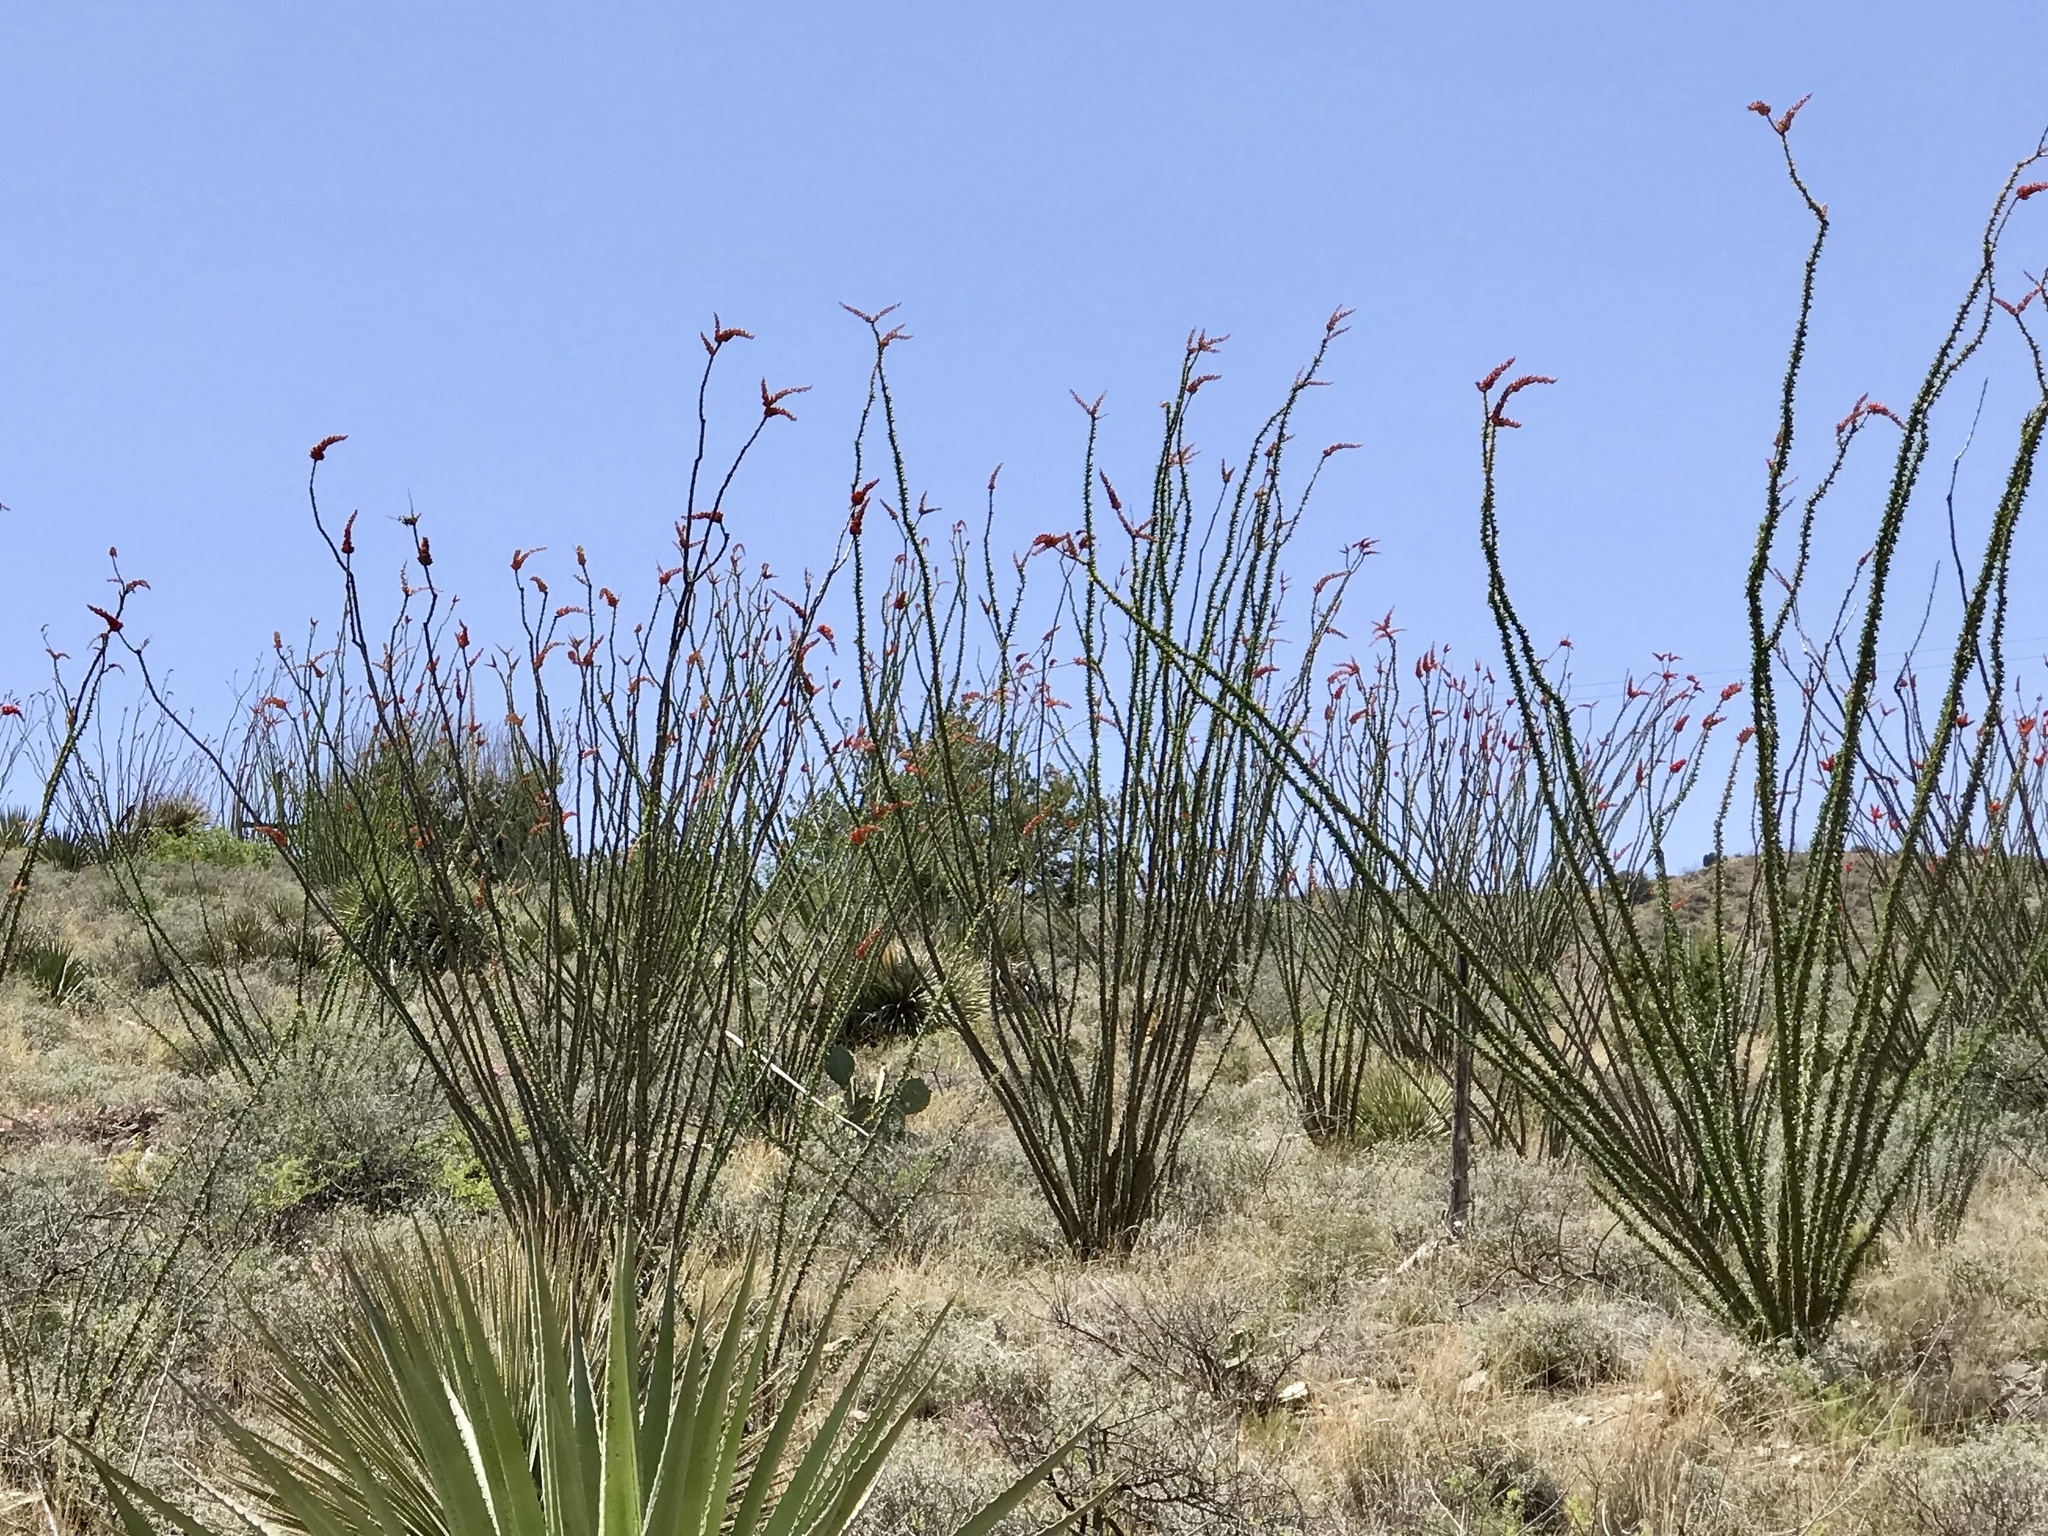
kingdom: Plantae
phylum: Tracheophyta
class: Magnoliopsida
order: Ericales
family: Fouquieriaceae
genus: Fouquieria
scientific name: Fouquieria splendens
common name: Vine-cactus
